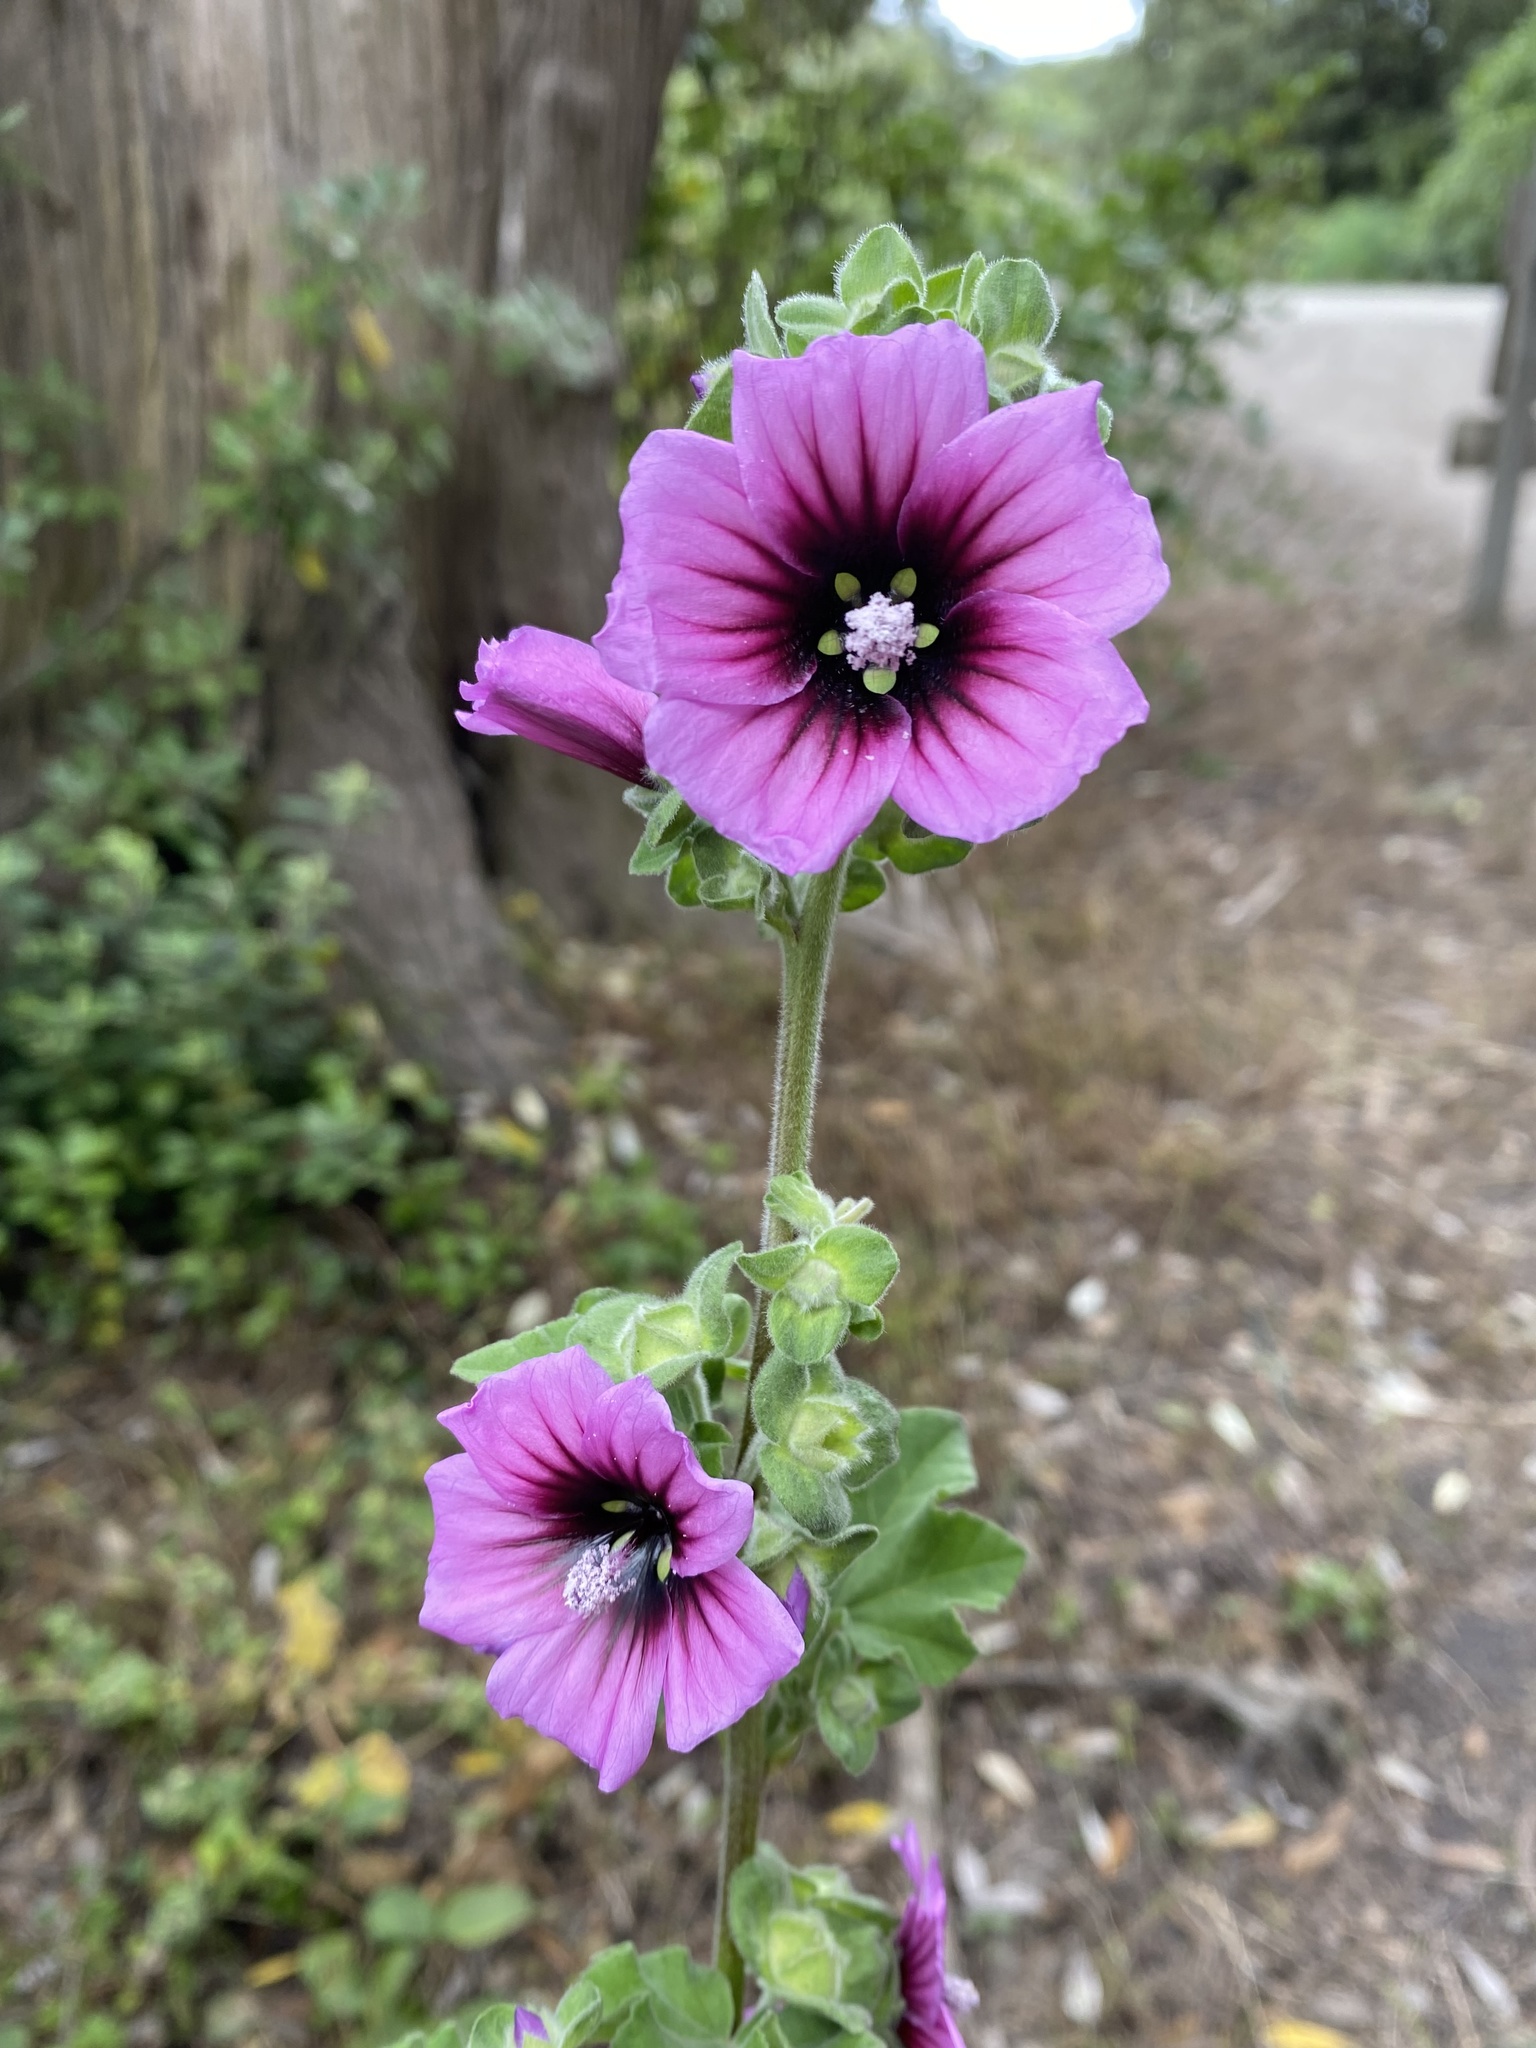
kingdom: Plantae
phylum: Tracheophyta
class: Magnoliopsida
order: Malvales
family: Malvaceae
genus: Malva
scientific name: Malva arborea
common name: Tree mallow
